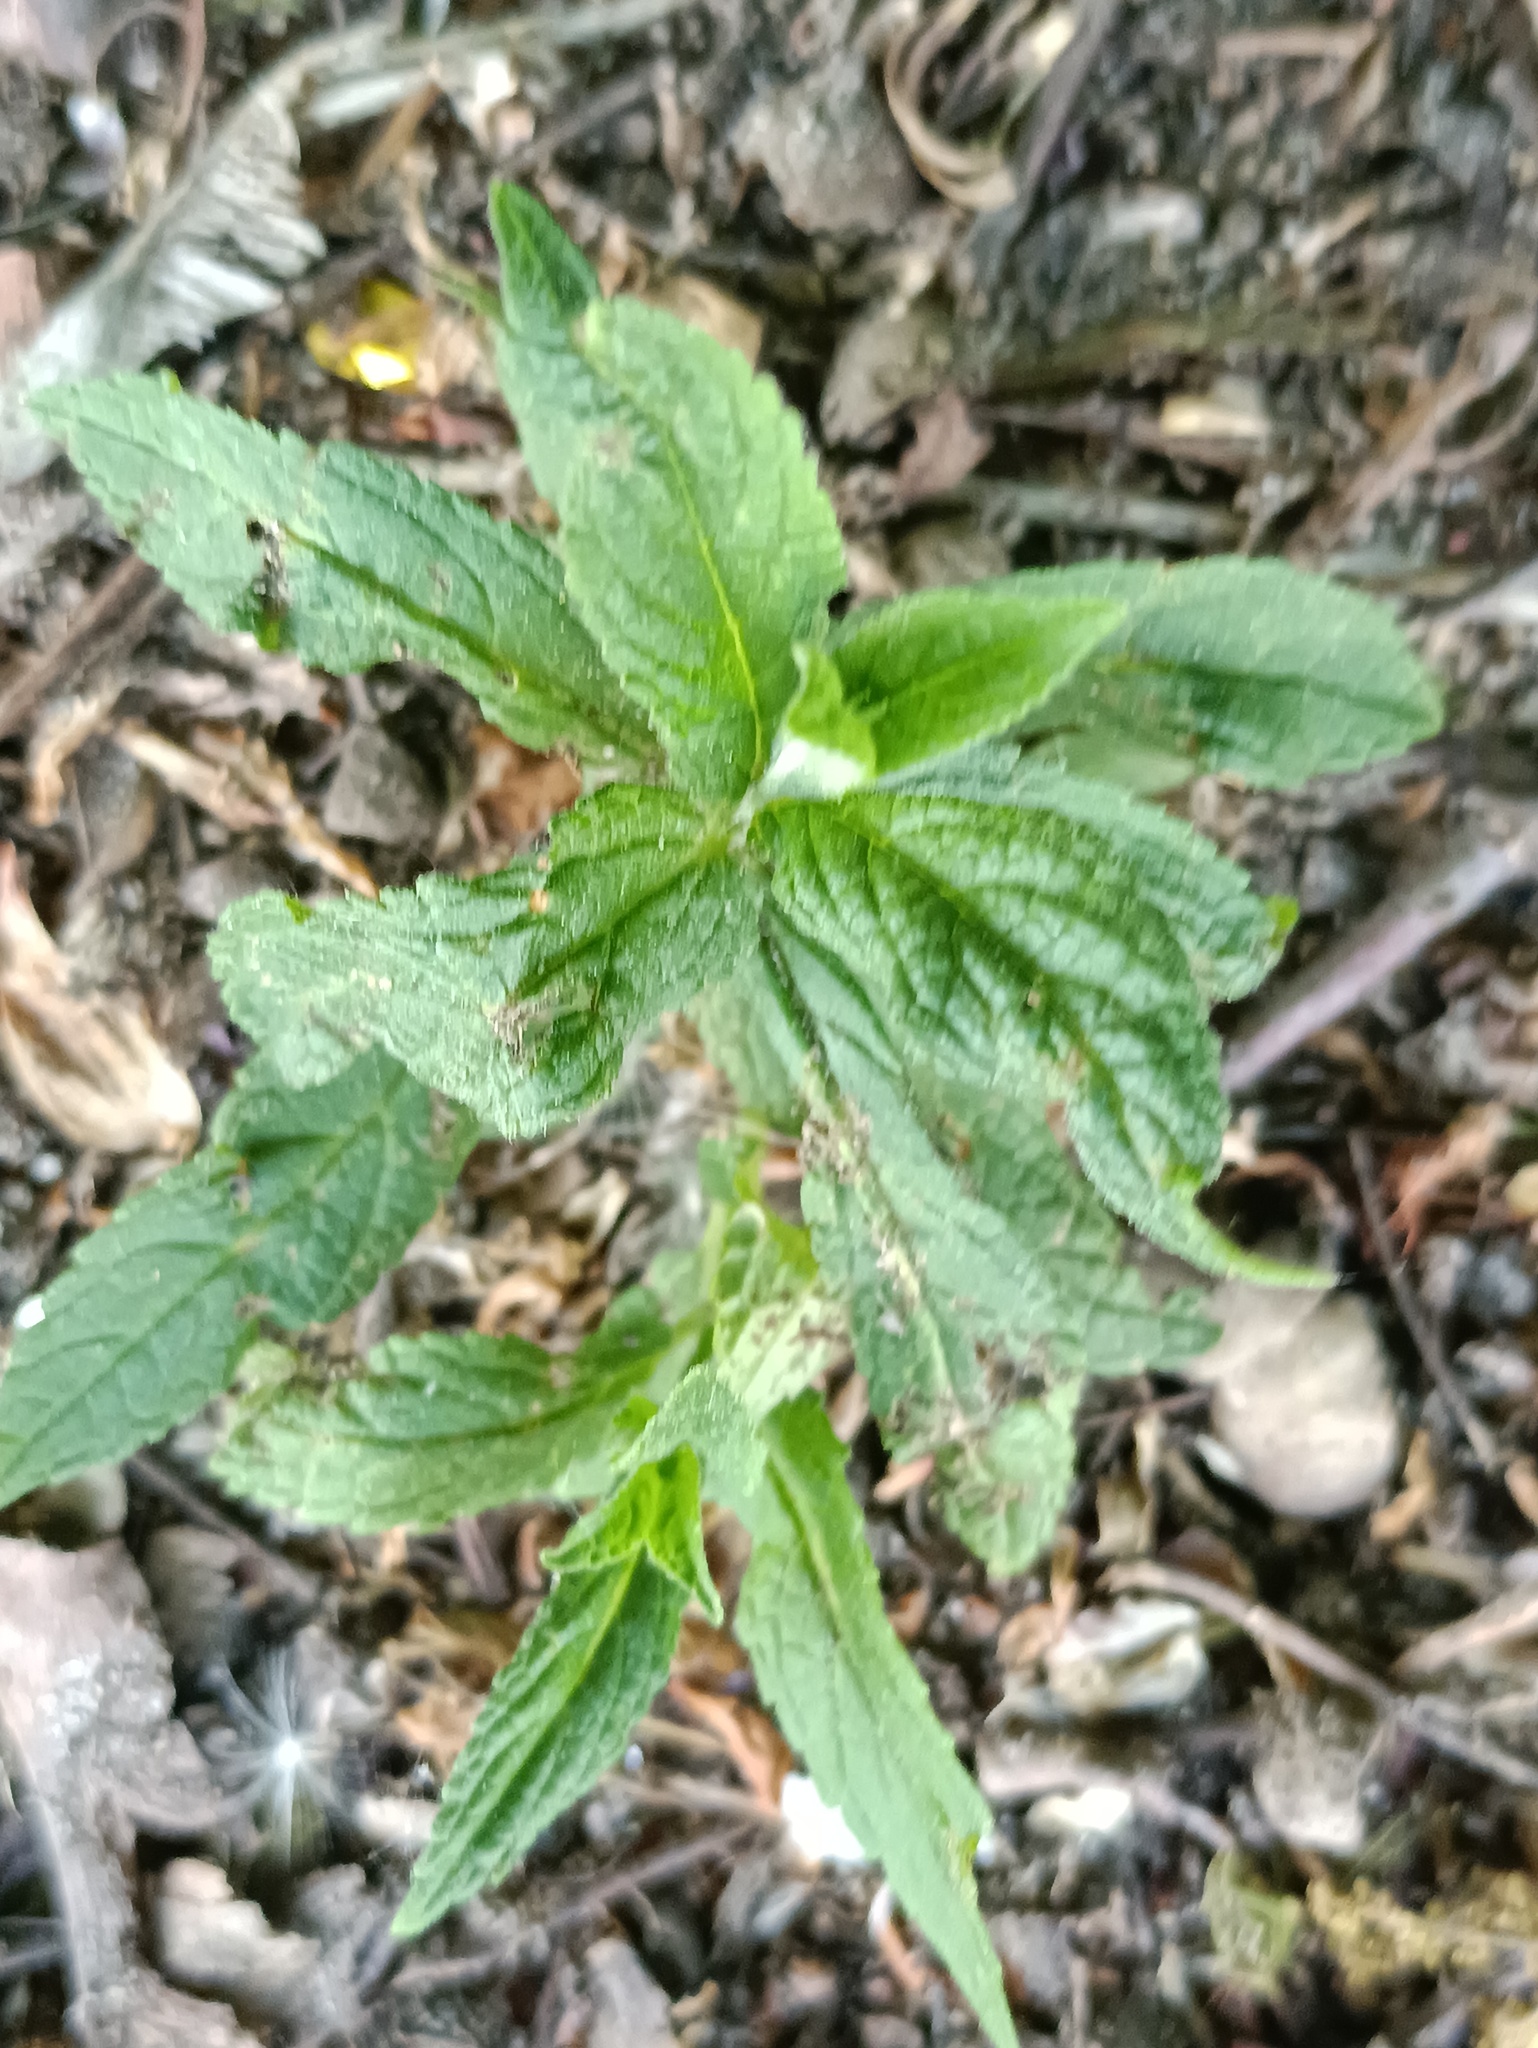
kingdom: Plantae
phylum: Tracheophyta
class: Magnoliopsida
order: Lamiales
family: Lamiaceae
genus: Stachys
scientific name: Stachys palustris
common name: Marsh woundwort
